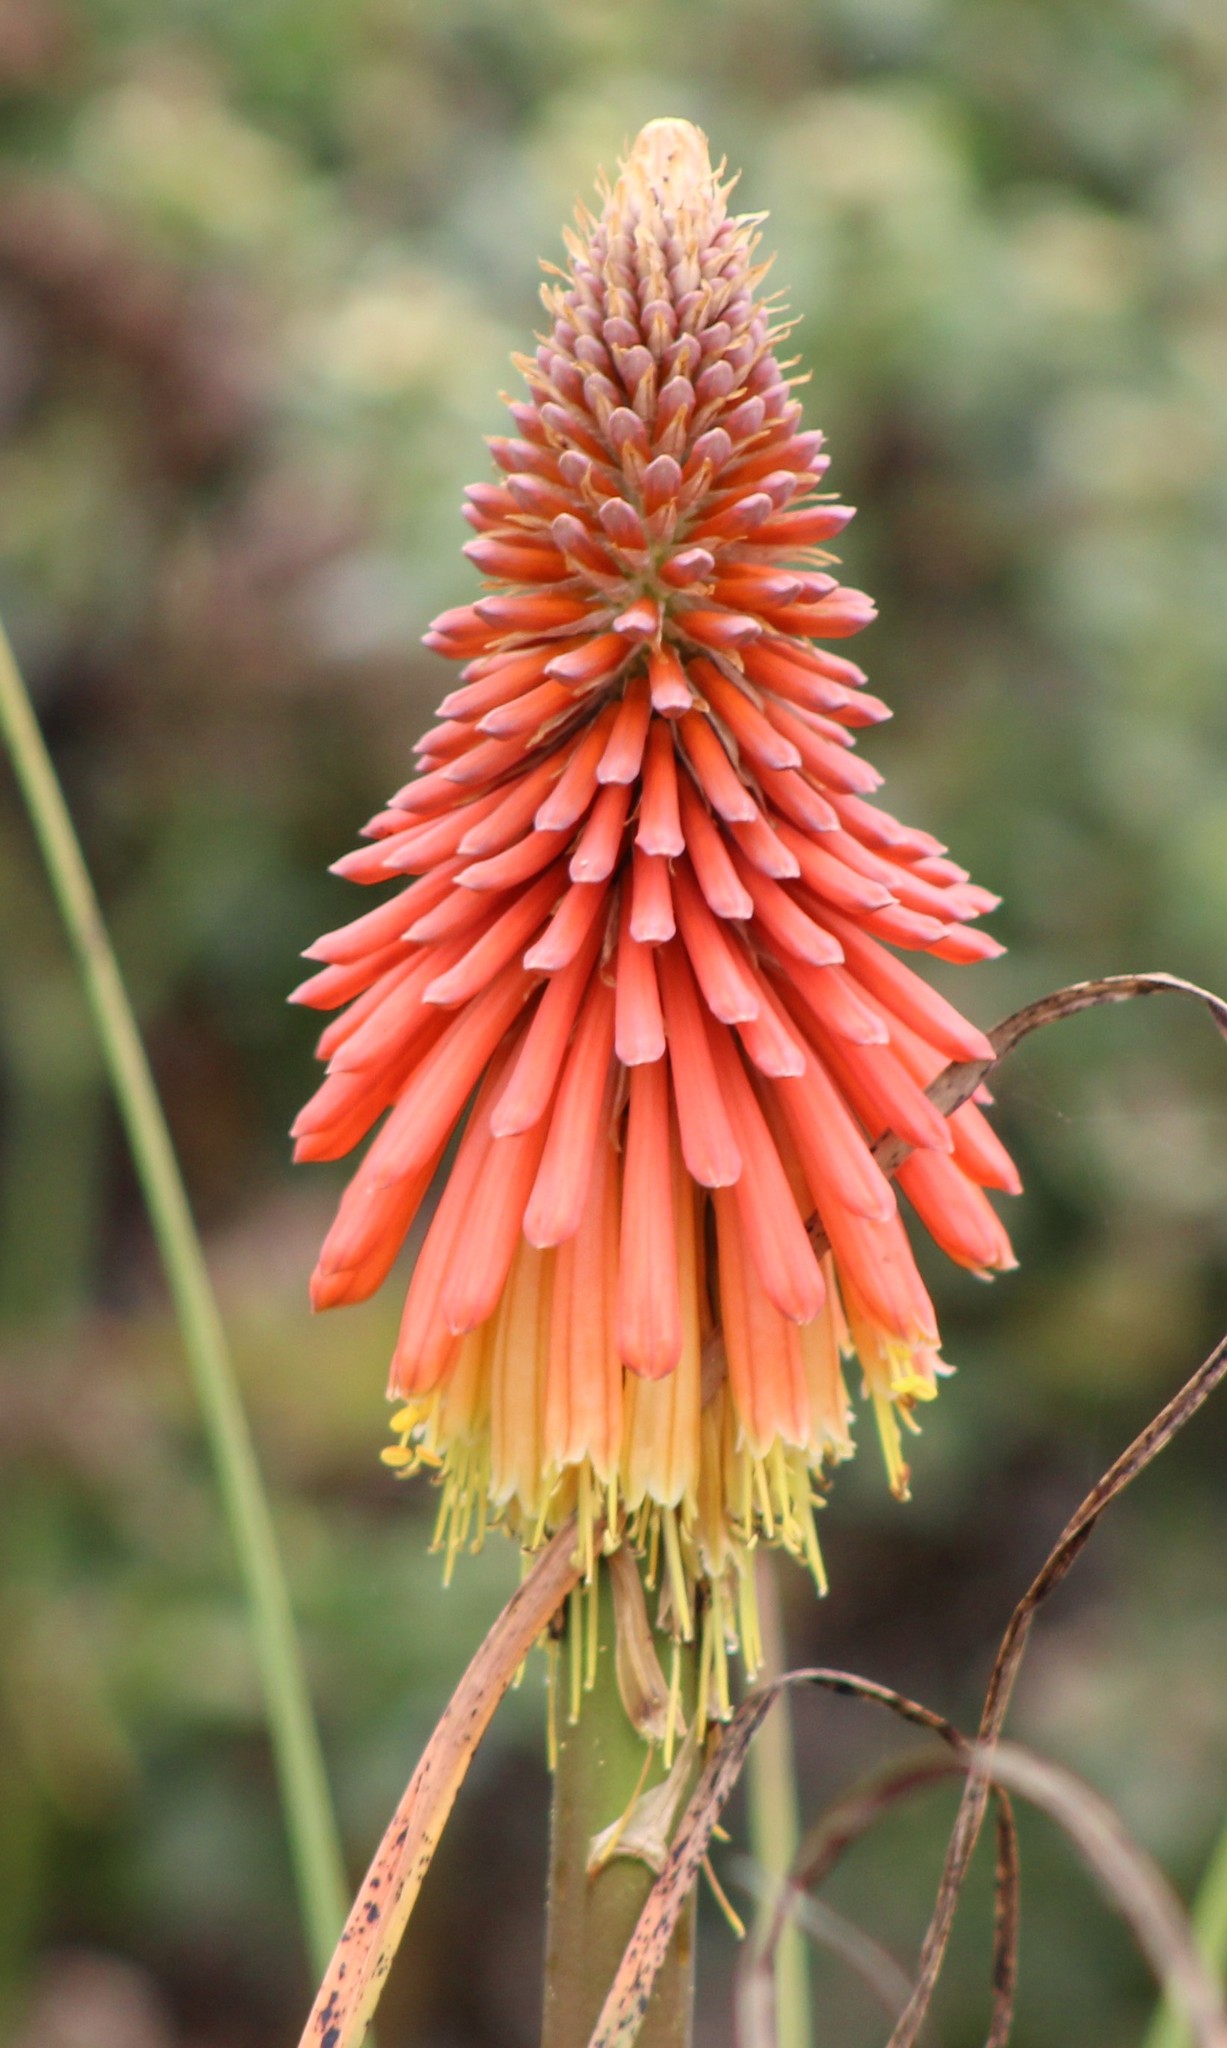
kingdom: Plantae
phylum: Tracheophyta
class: Liliopsida
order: Asparagales
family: Asphodelaceae
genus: Kniphofia
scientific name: Kniphofia uvaria
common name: Red-hot-poker
